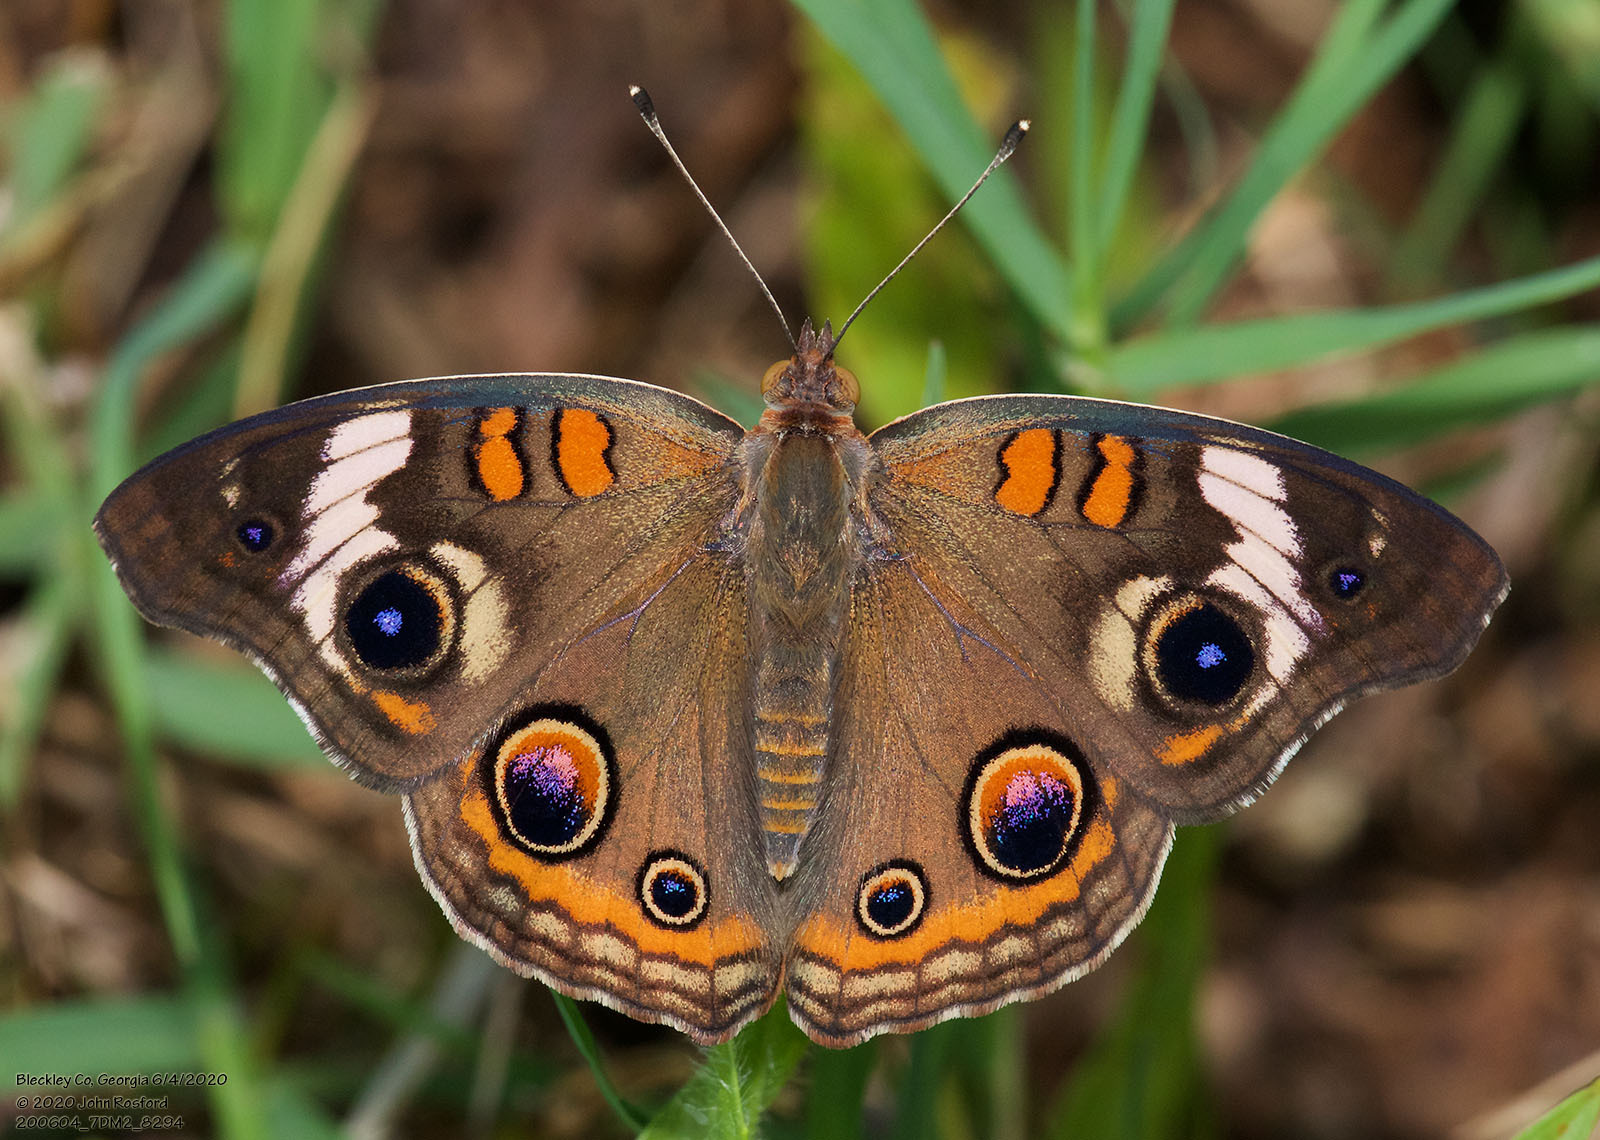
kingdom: Animalia
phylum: Arthropoda
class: Insecta
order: Lepidoptera
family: Nymphalidae
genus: Junonia
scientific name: Junonia coenia
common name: Common buckeye
